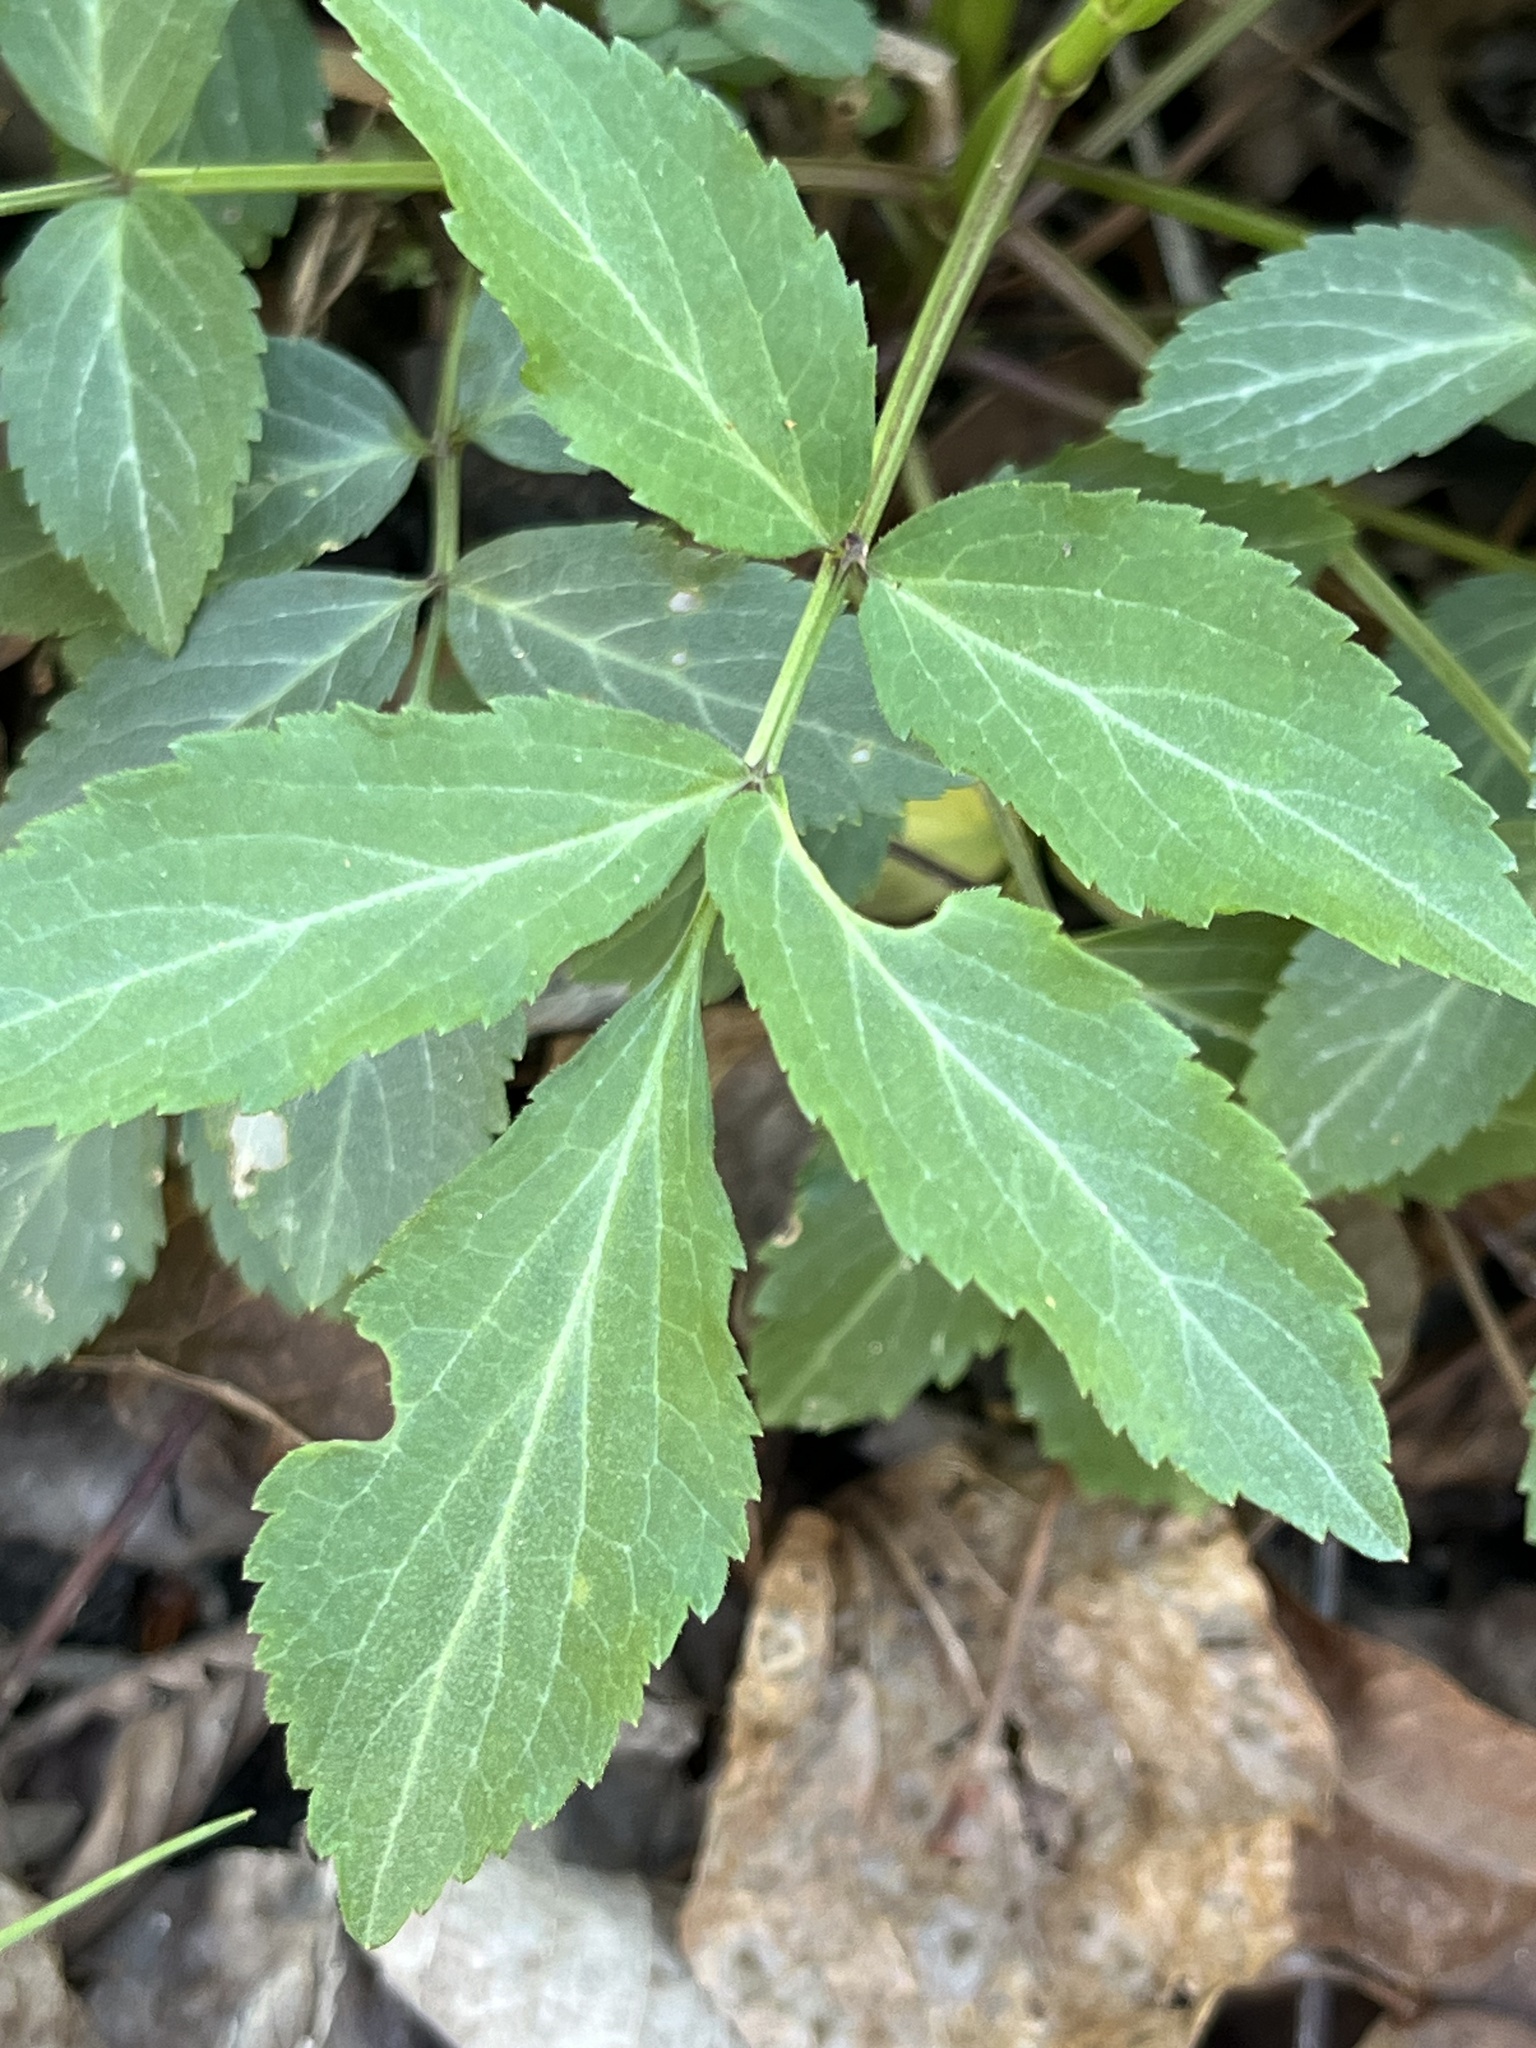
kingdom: Plantae
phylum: Tracheophyta
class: Magnoliopsida
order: Dipsacales
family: Viburnaceae
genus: Sambucus
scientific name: Sambucus canadensis
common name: American elder
